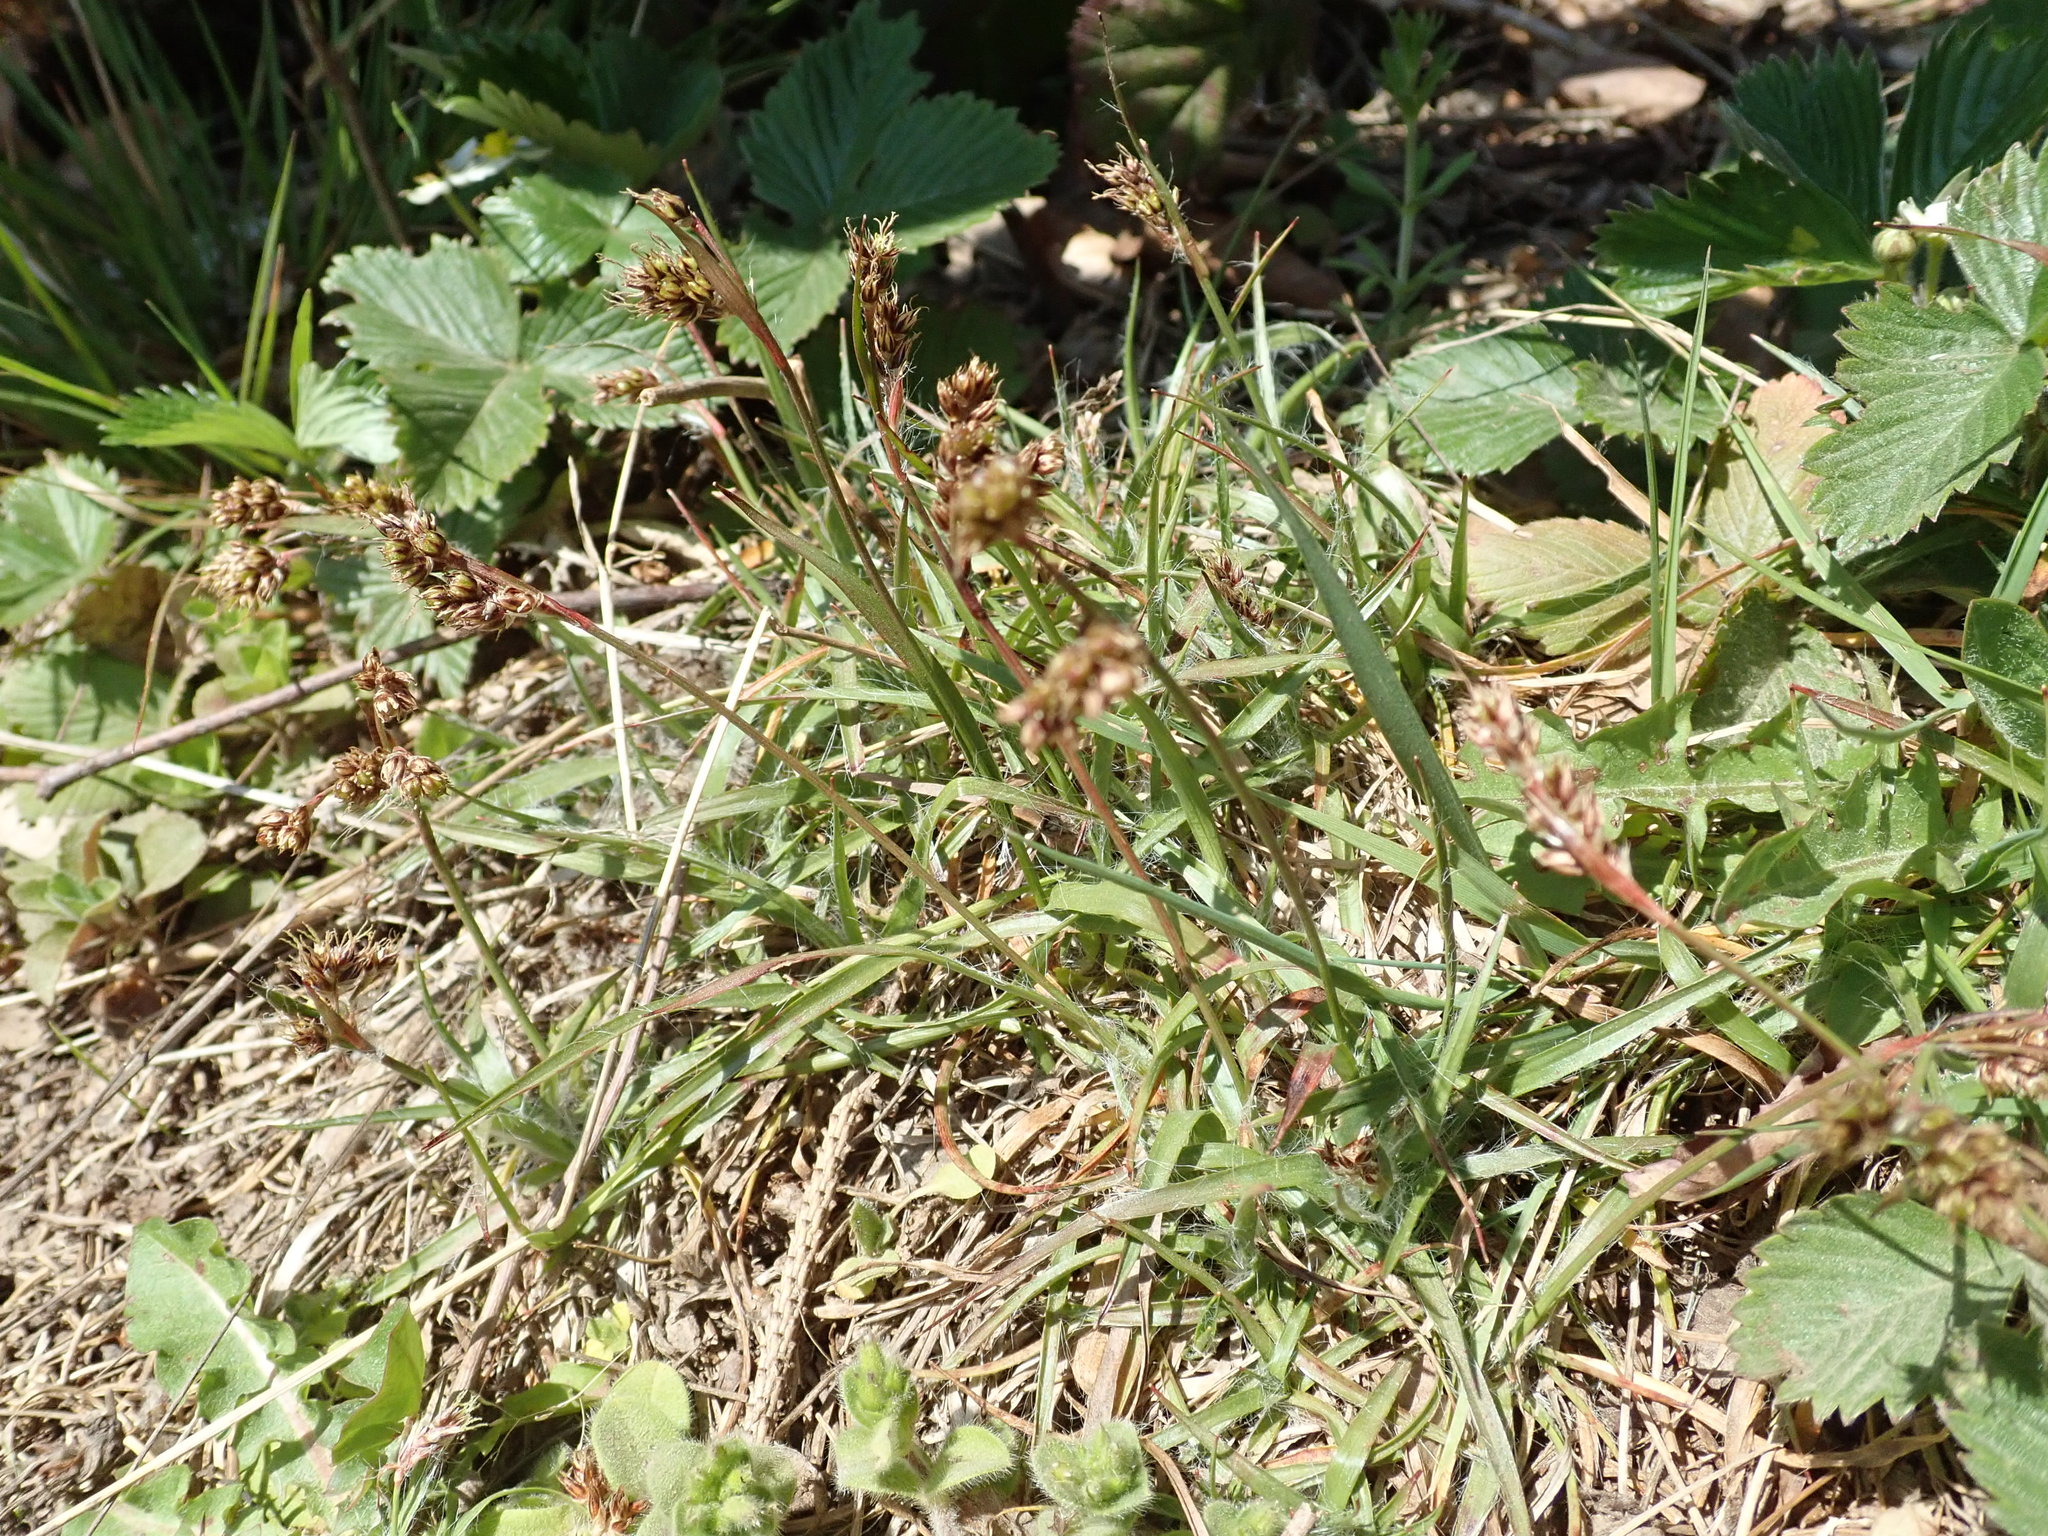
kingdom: Plantae
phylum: Tracheophyta
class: Liliopsida
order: Poales
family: Juncaceae
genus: Luzula
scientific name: Luzula campestris
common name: Field wood-rush
